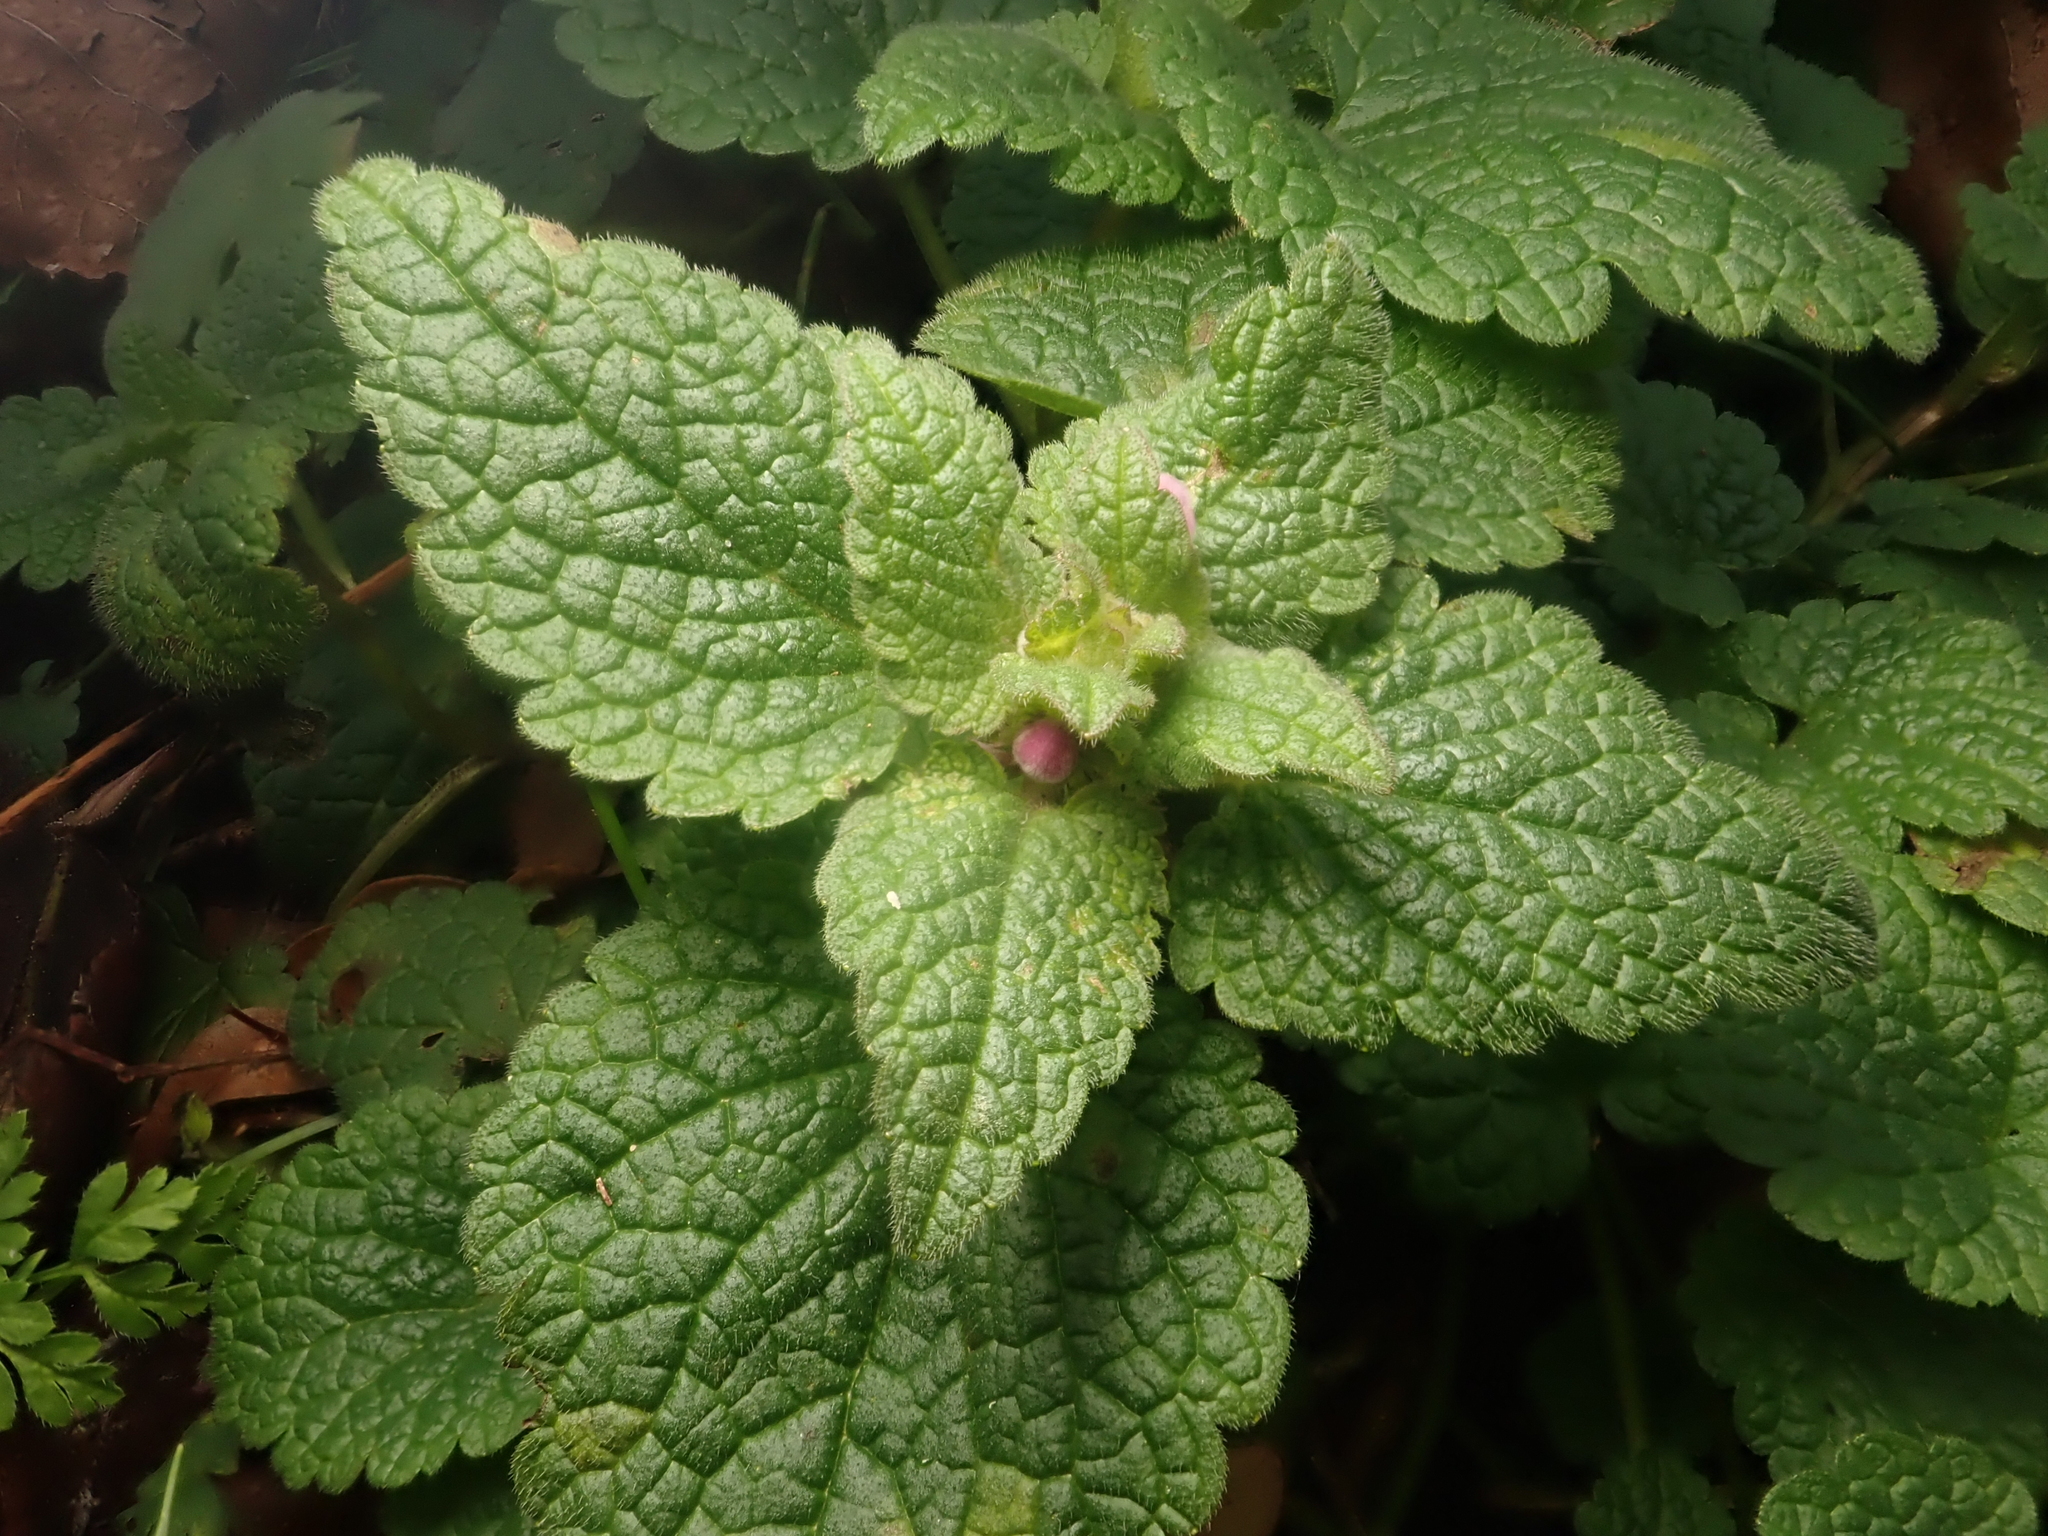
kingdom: Plantae
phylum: Tracheophyta
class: Magnoliopsida
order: Lamiales
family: Lamiaceae
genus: Lamium
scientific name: Lamium purpureum
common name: Red dead-nettle
